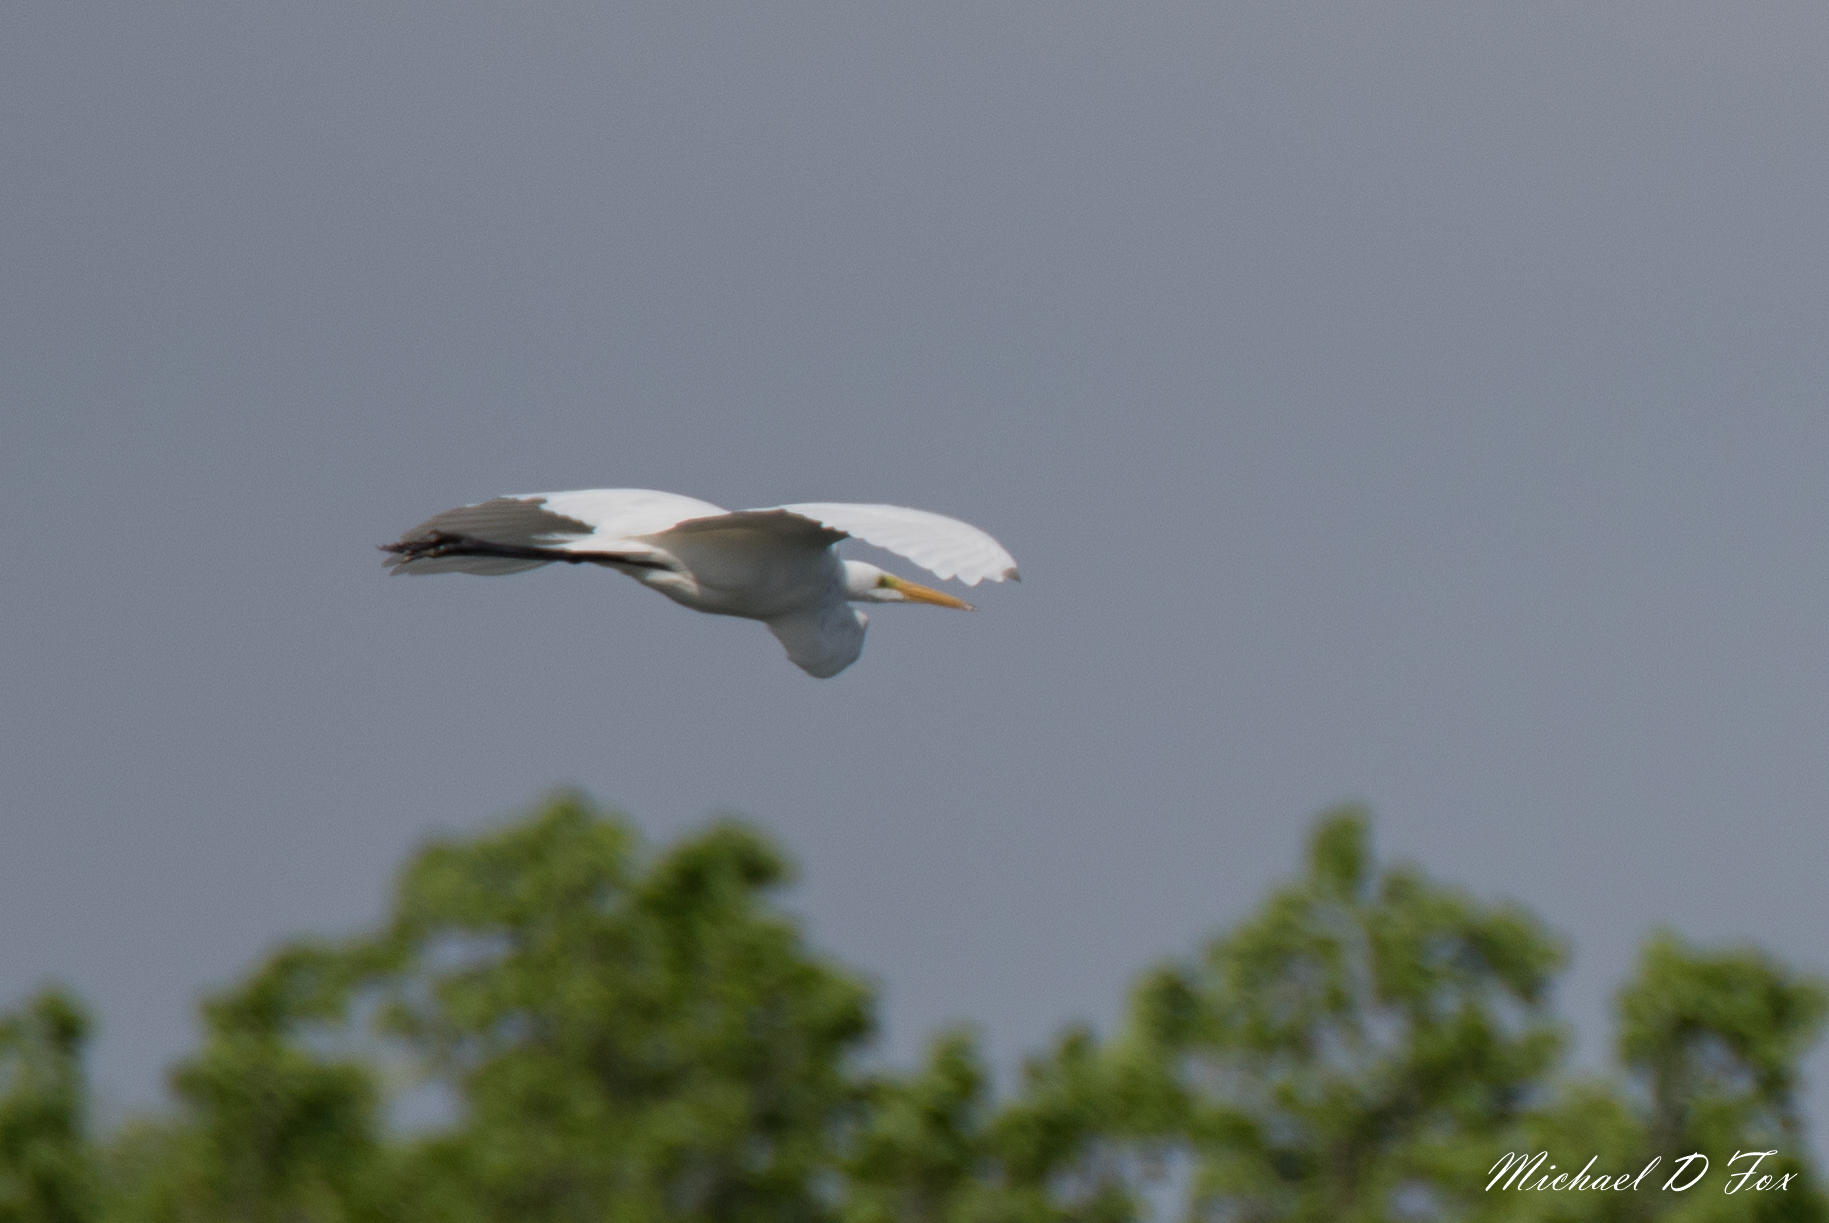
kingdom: Animalia
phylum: Chordata
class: Aves
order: Pelecaniformes
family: Ardeidae
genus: Ardea
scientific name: Ardea alba
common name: Great egret
